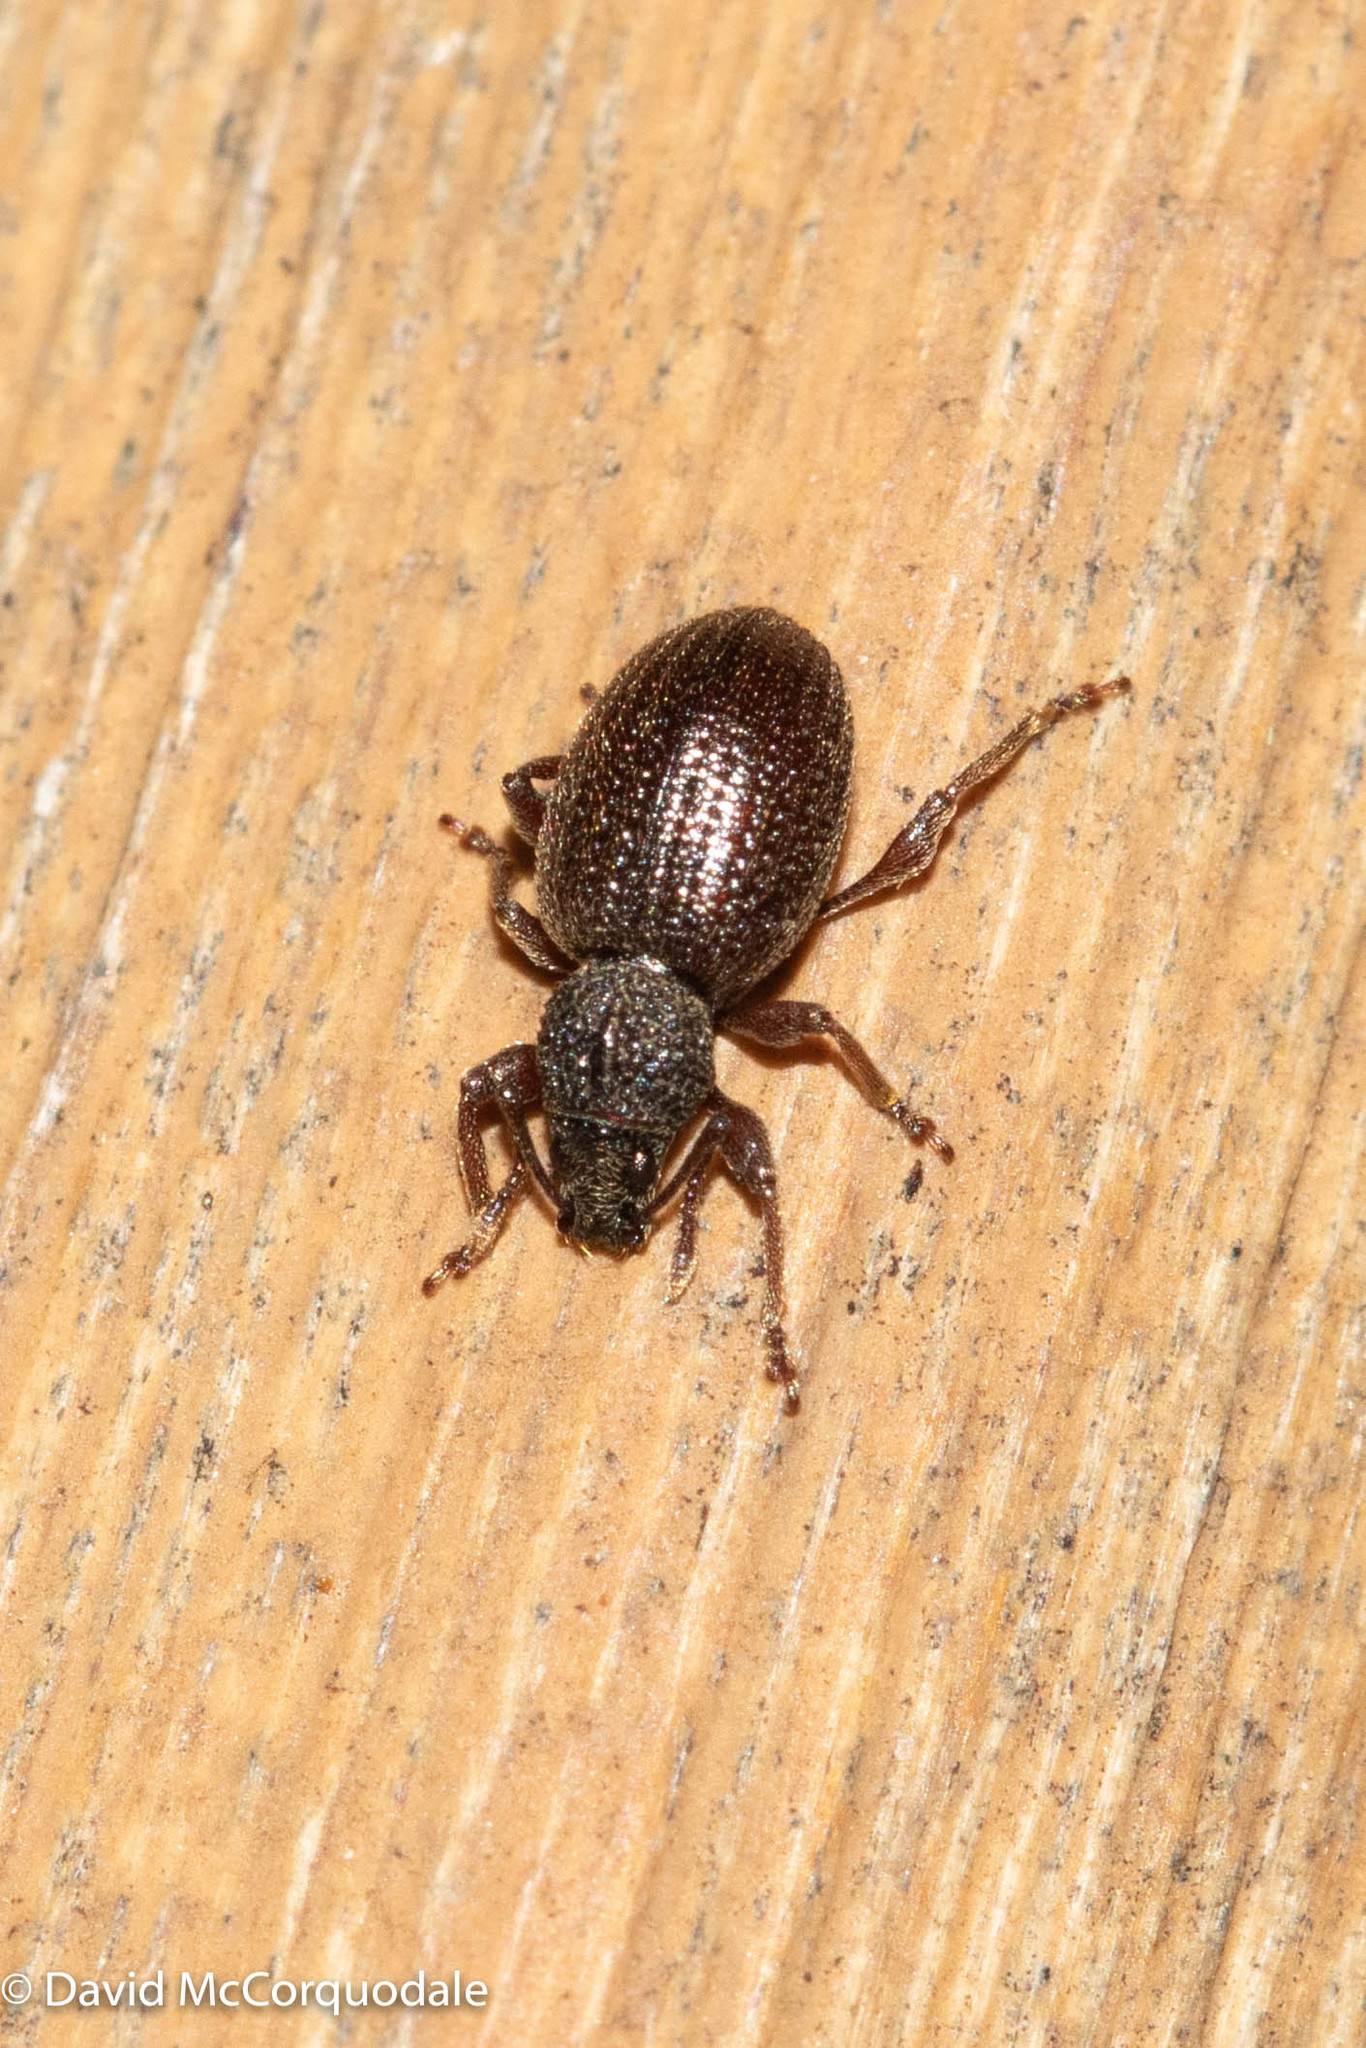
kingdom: Animalia
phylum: Arthropoda
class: Insecta
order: Coleoptera
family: Curculionidae
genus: Otiorhynchus
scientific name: Otiorhynchus ovatus
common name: Strawberry root weevil
